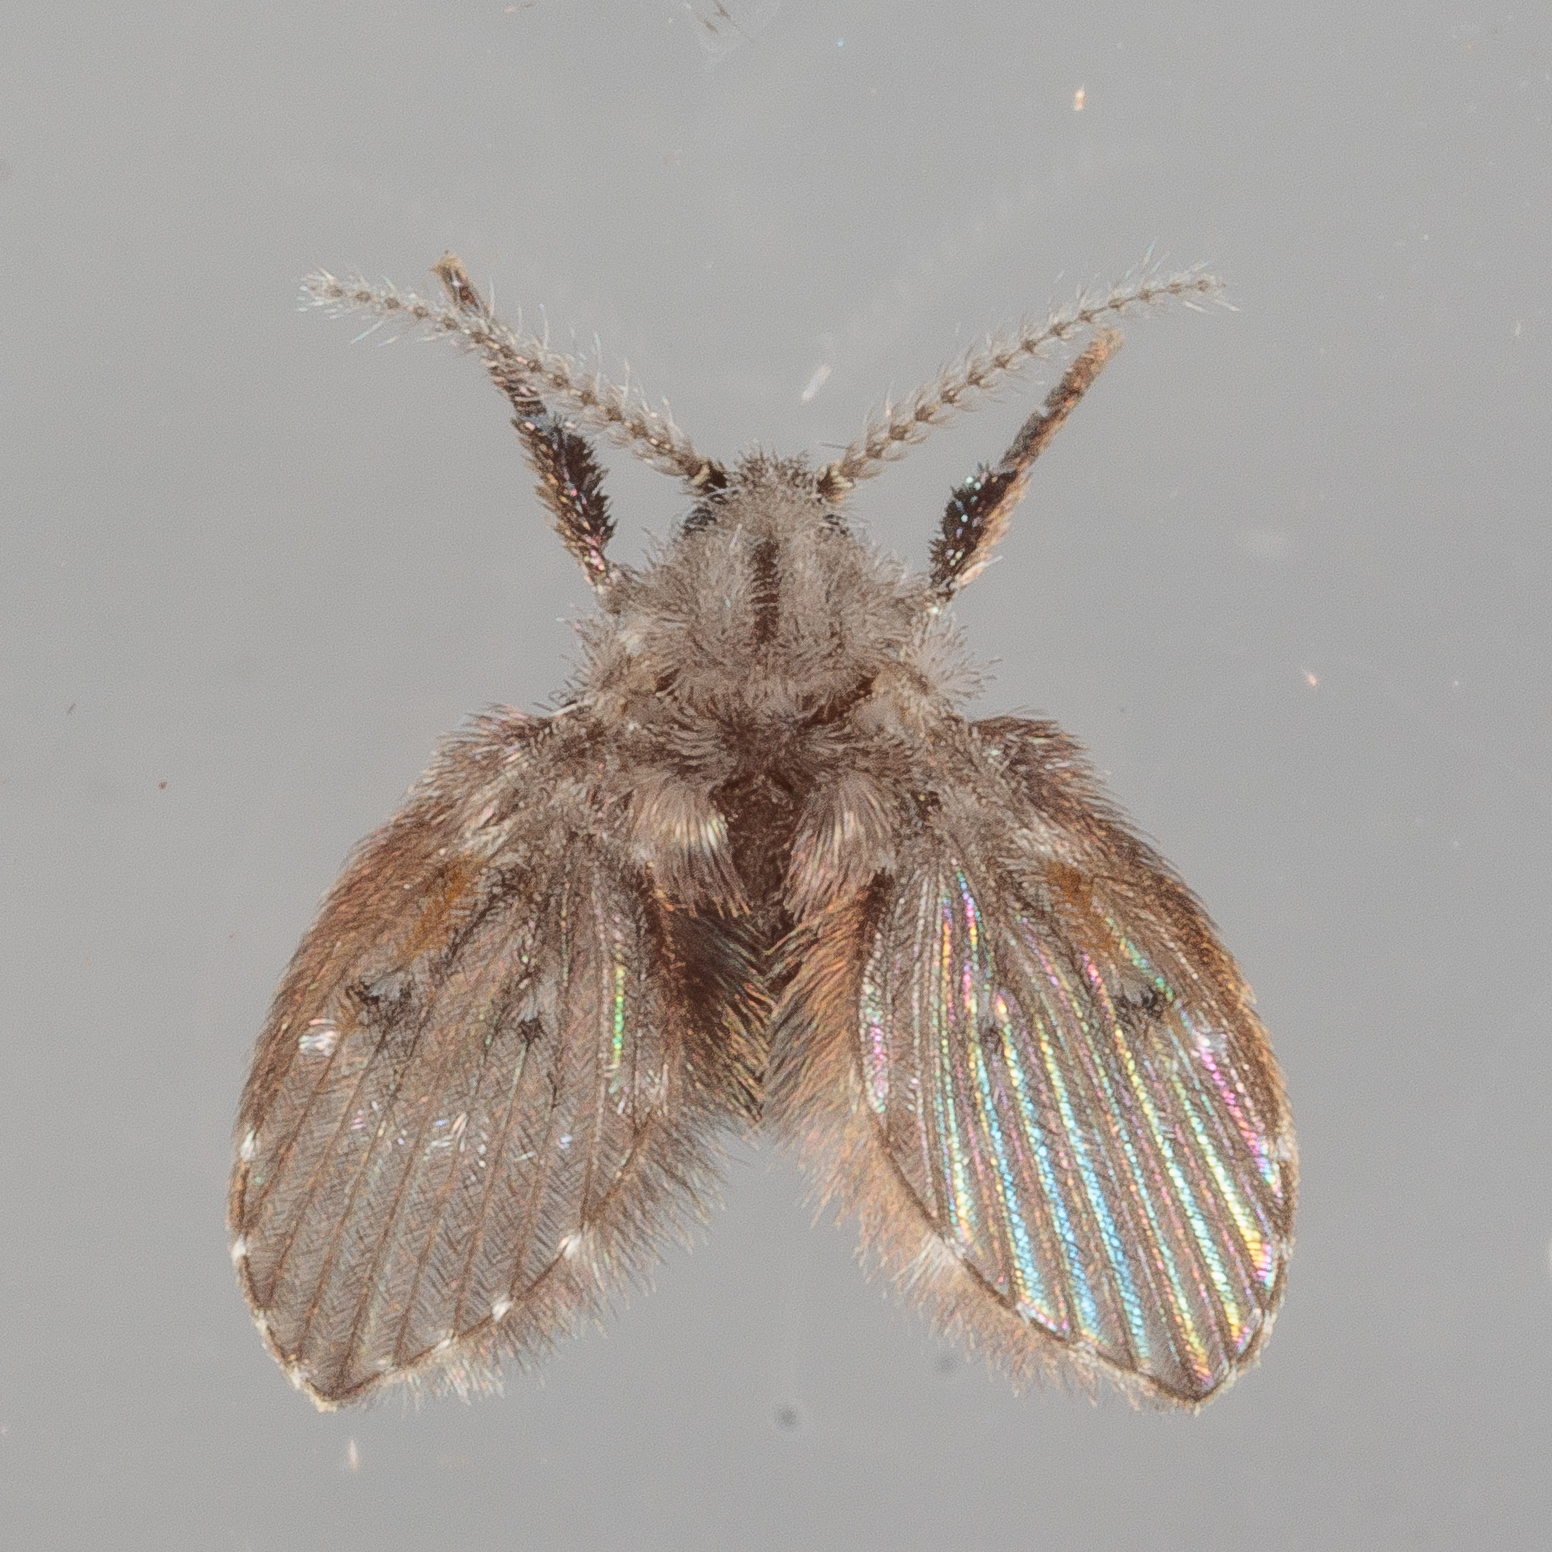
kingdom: Animalia
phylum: Arthropoda
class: Insecta
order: Diptera
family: Psychodidae
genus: Clogmia
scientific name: Clogmia albipunctatus
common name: White-spotted moth fly
